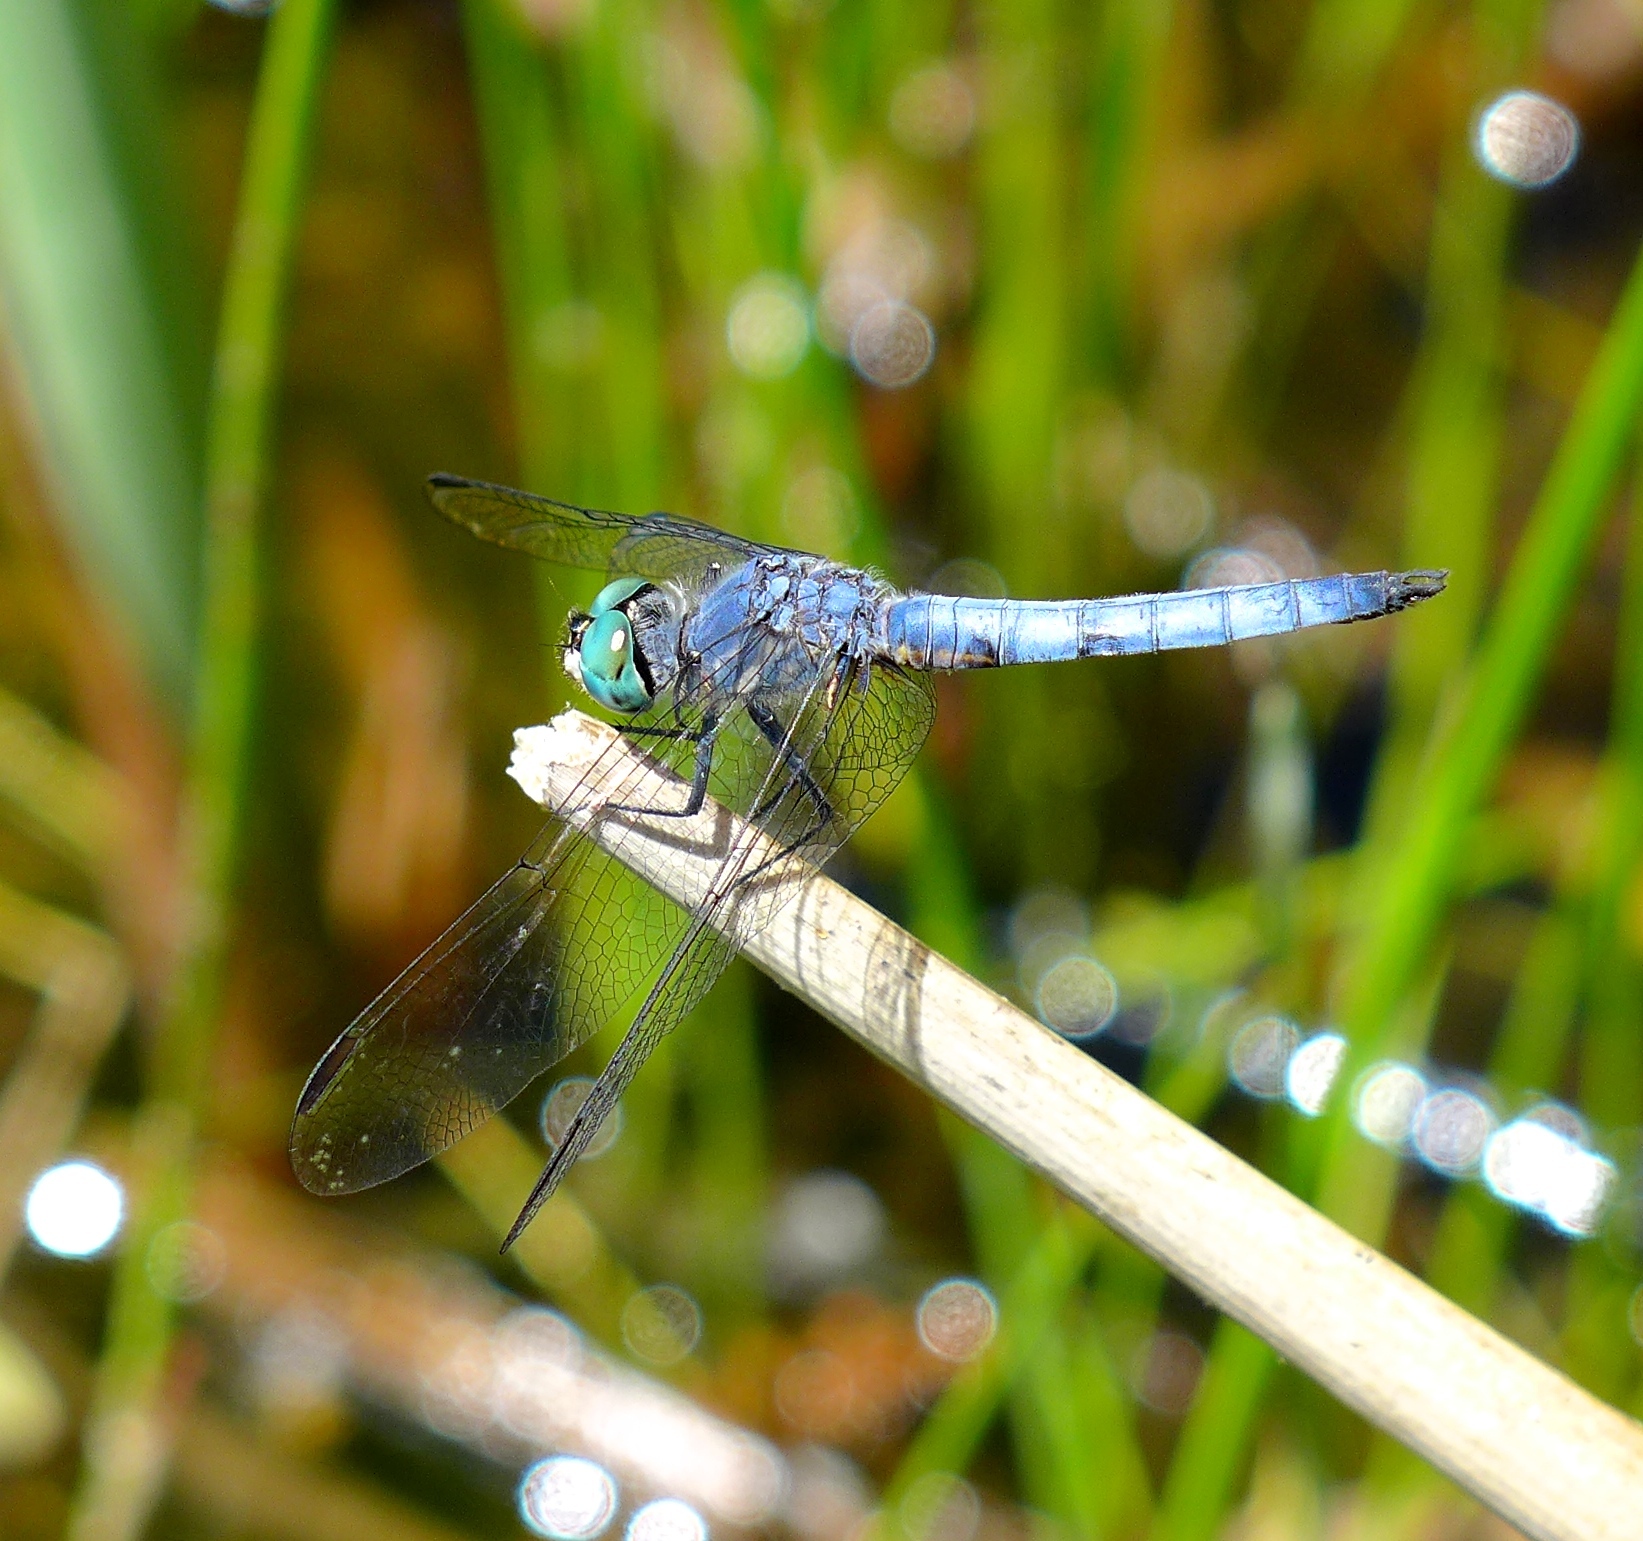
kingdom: Animalia
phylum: Arthropoda
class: Insecta
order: Odonata
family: Libellulidae
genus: Pachydiplax
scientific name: Pachydiplax longipennis
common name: Blue dasher
